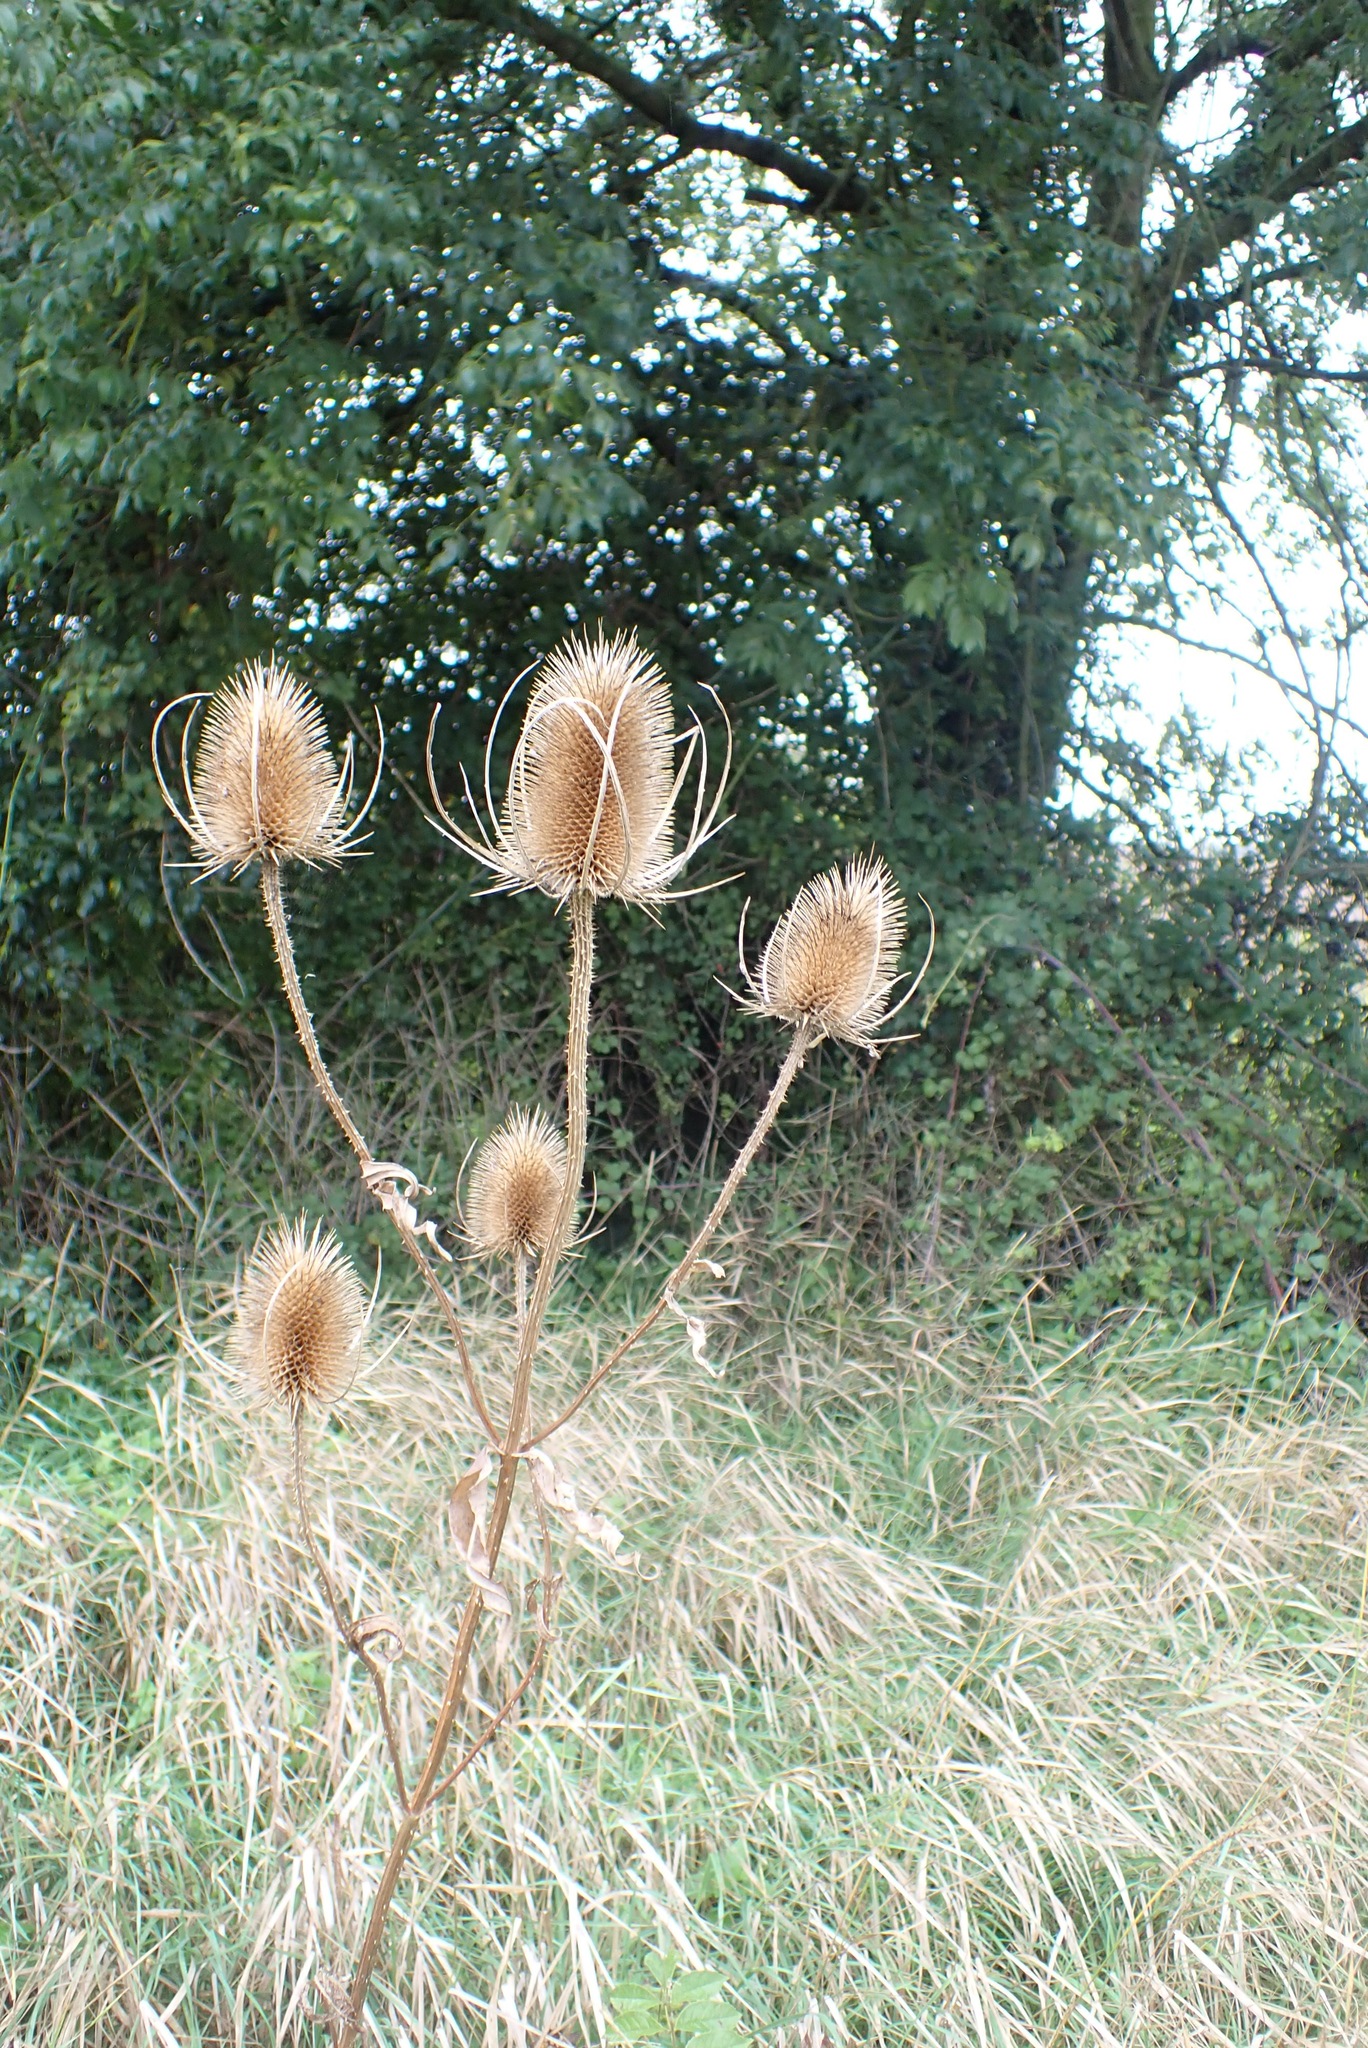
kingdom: Plantae
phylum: Tracheophyta
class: Magnoliopsida
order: Dipsacales
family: Caprifoliaceae
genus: Dipsacus
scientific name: Dipsacus fullonum
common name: Teasel
